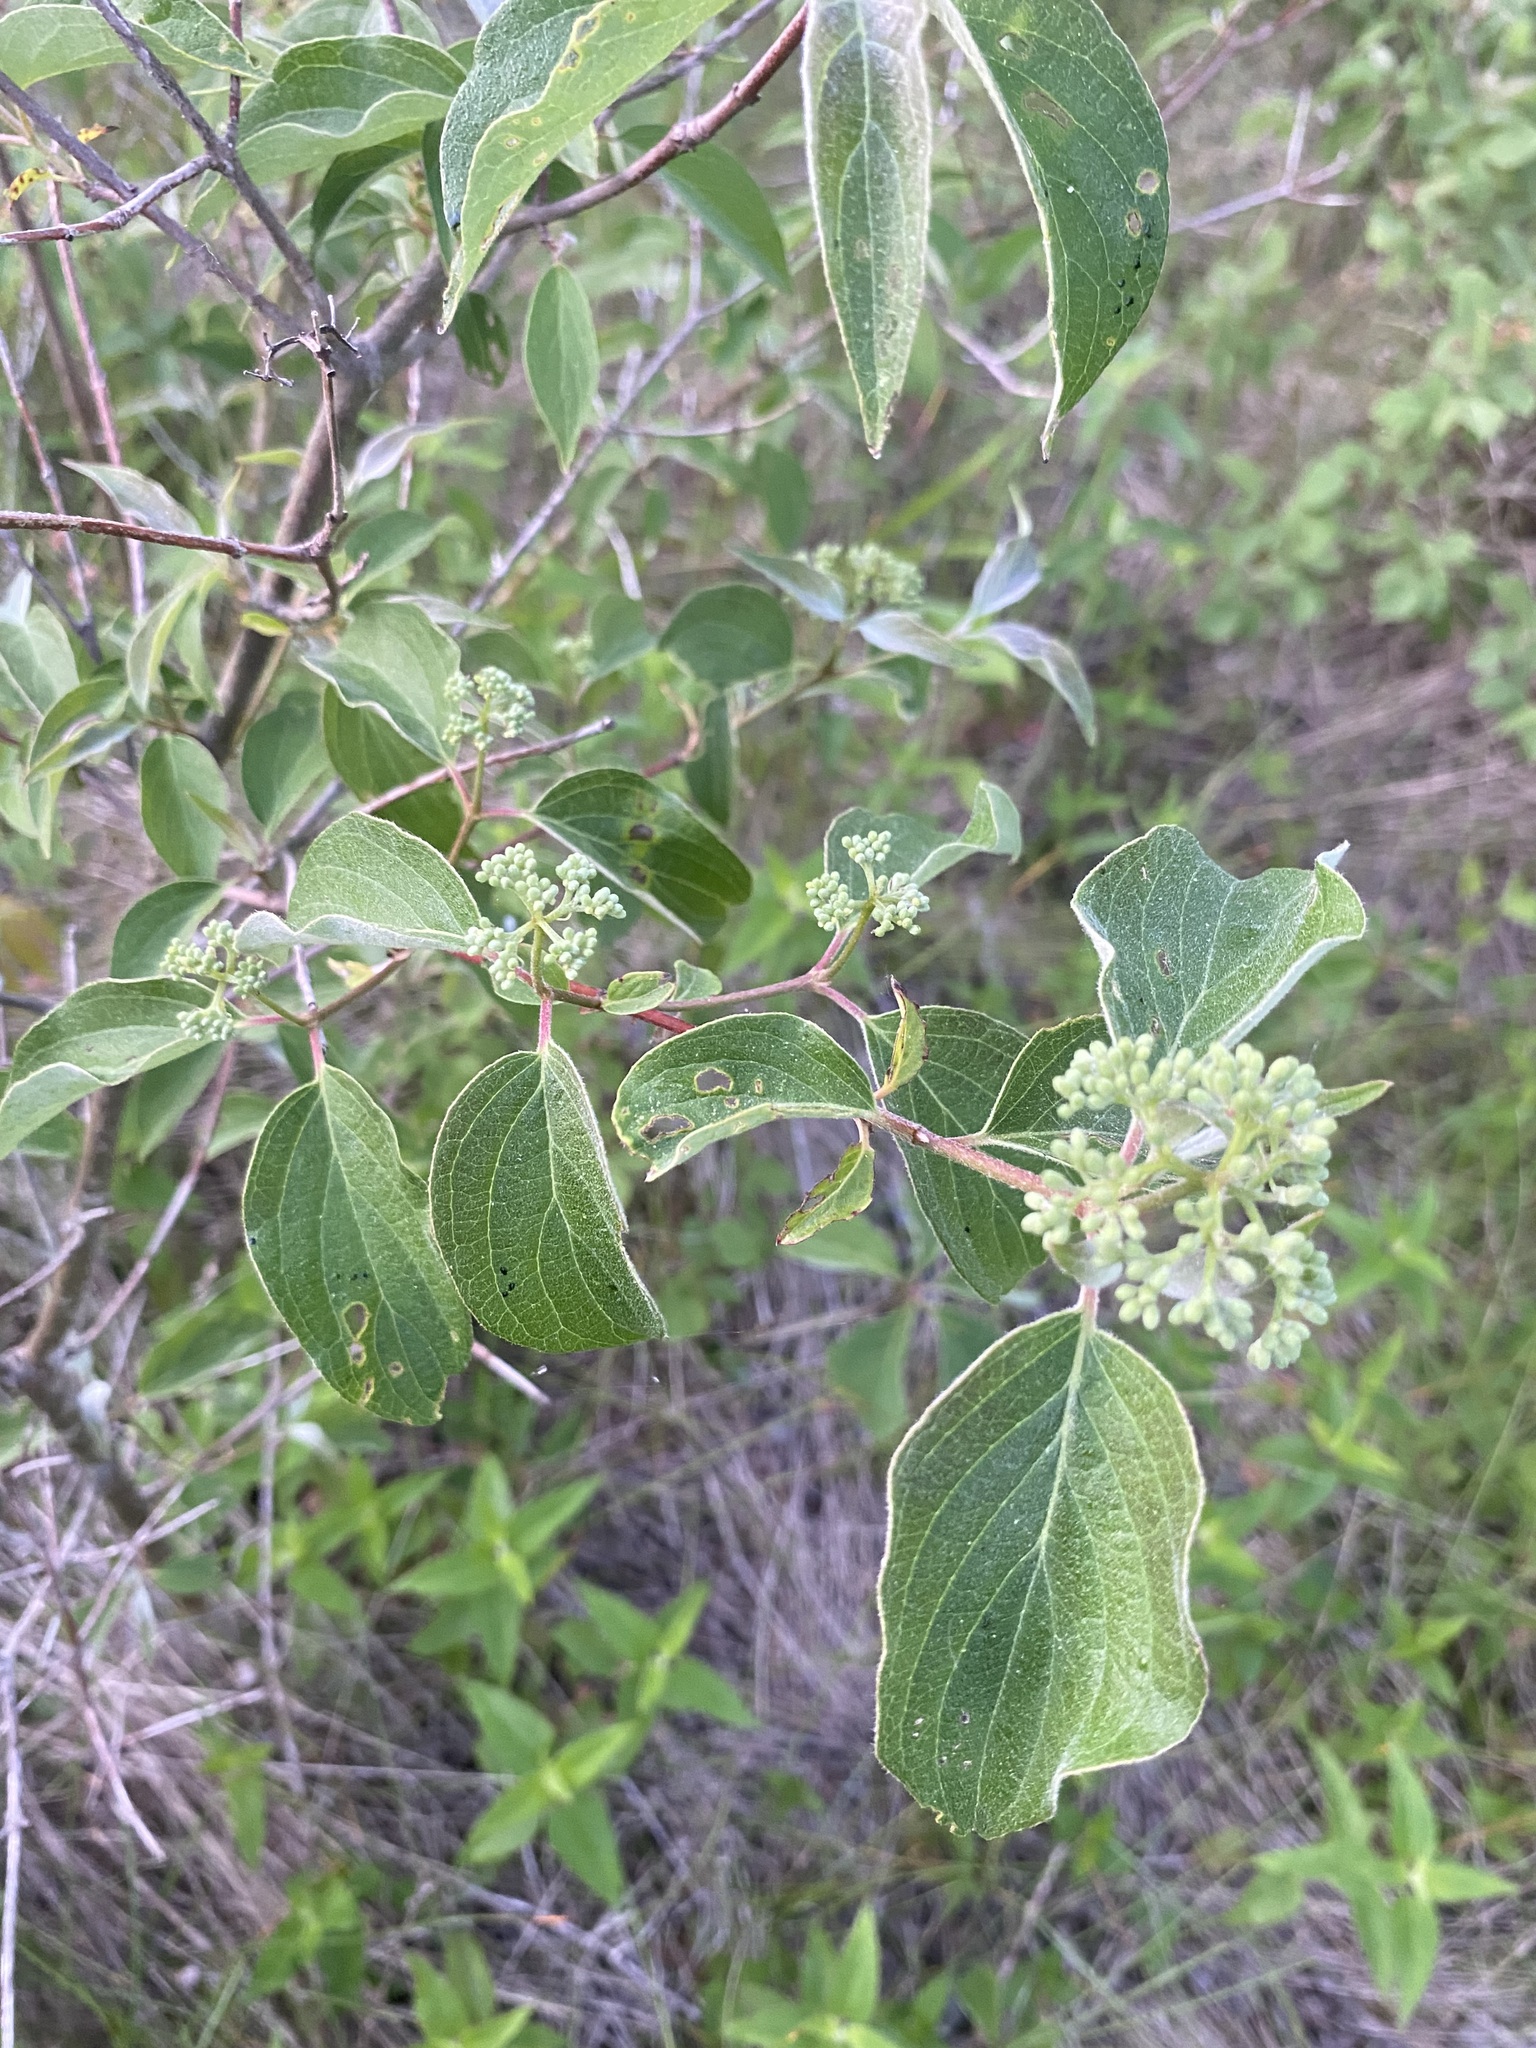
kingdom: Plantae
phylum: Tracheophyta
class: Magnoliopsida
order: Cornales
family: Cornaceae
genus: Cornus
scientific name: Cornus drummondii
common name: Rough-leaf dogwood
